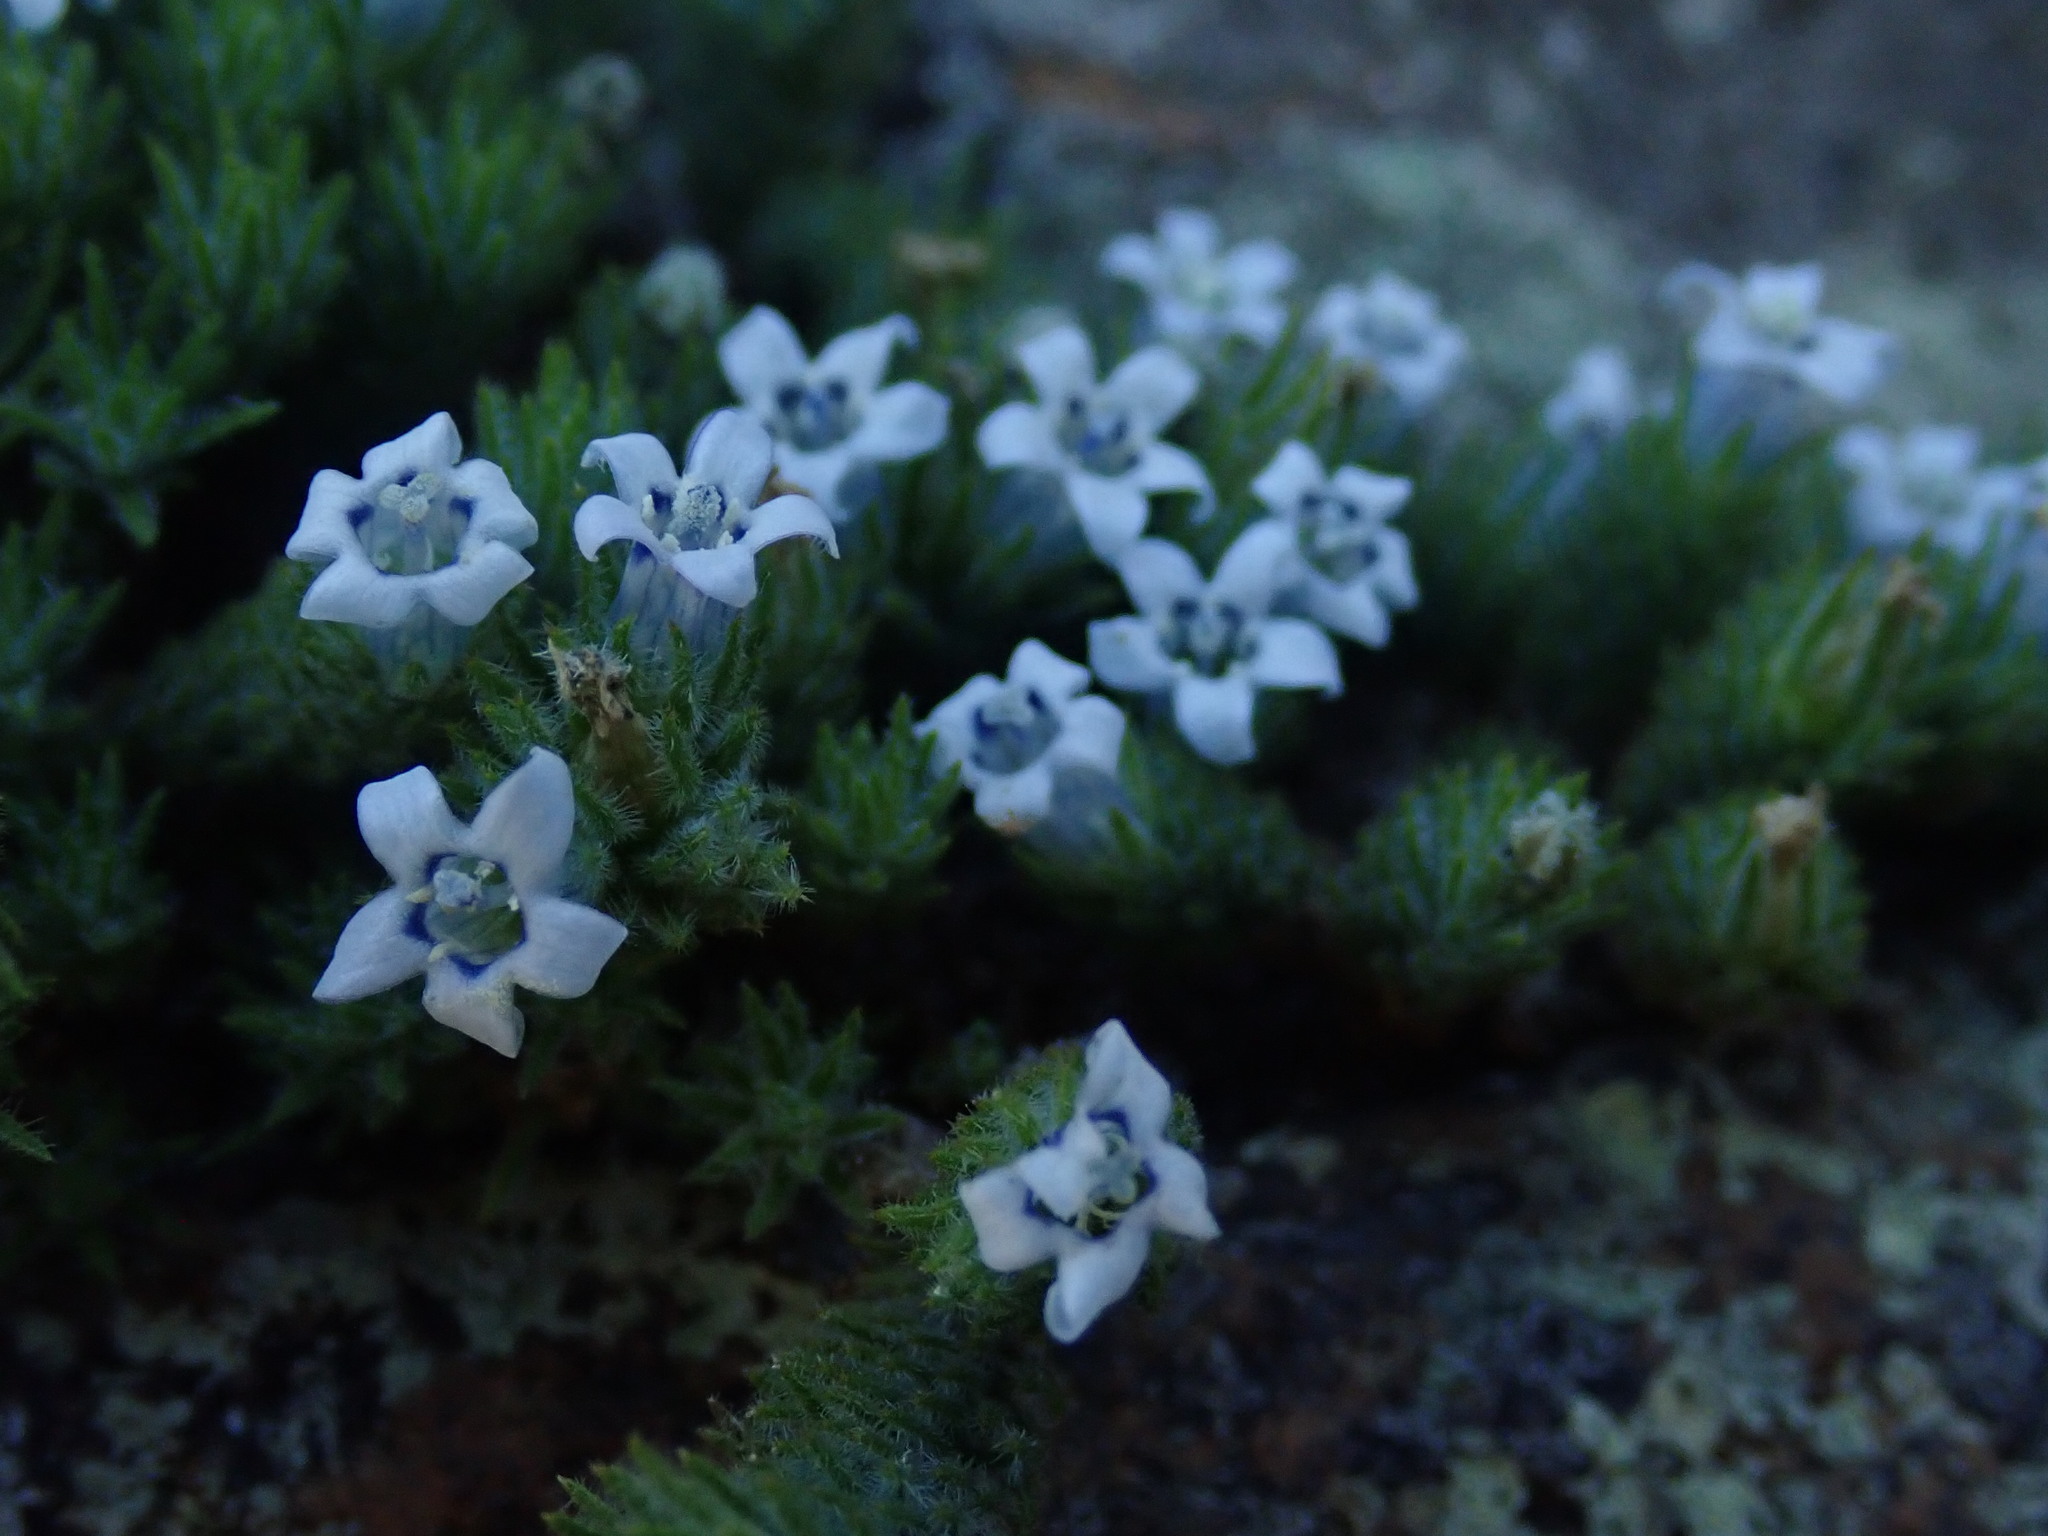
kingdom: Plantae
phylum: Tracheophyta
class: Magnoliopsida
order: Asterales
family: Campanulaceae
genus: Wahlenbergia
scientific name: Wahlenbergia lycopodioides
